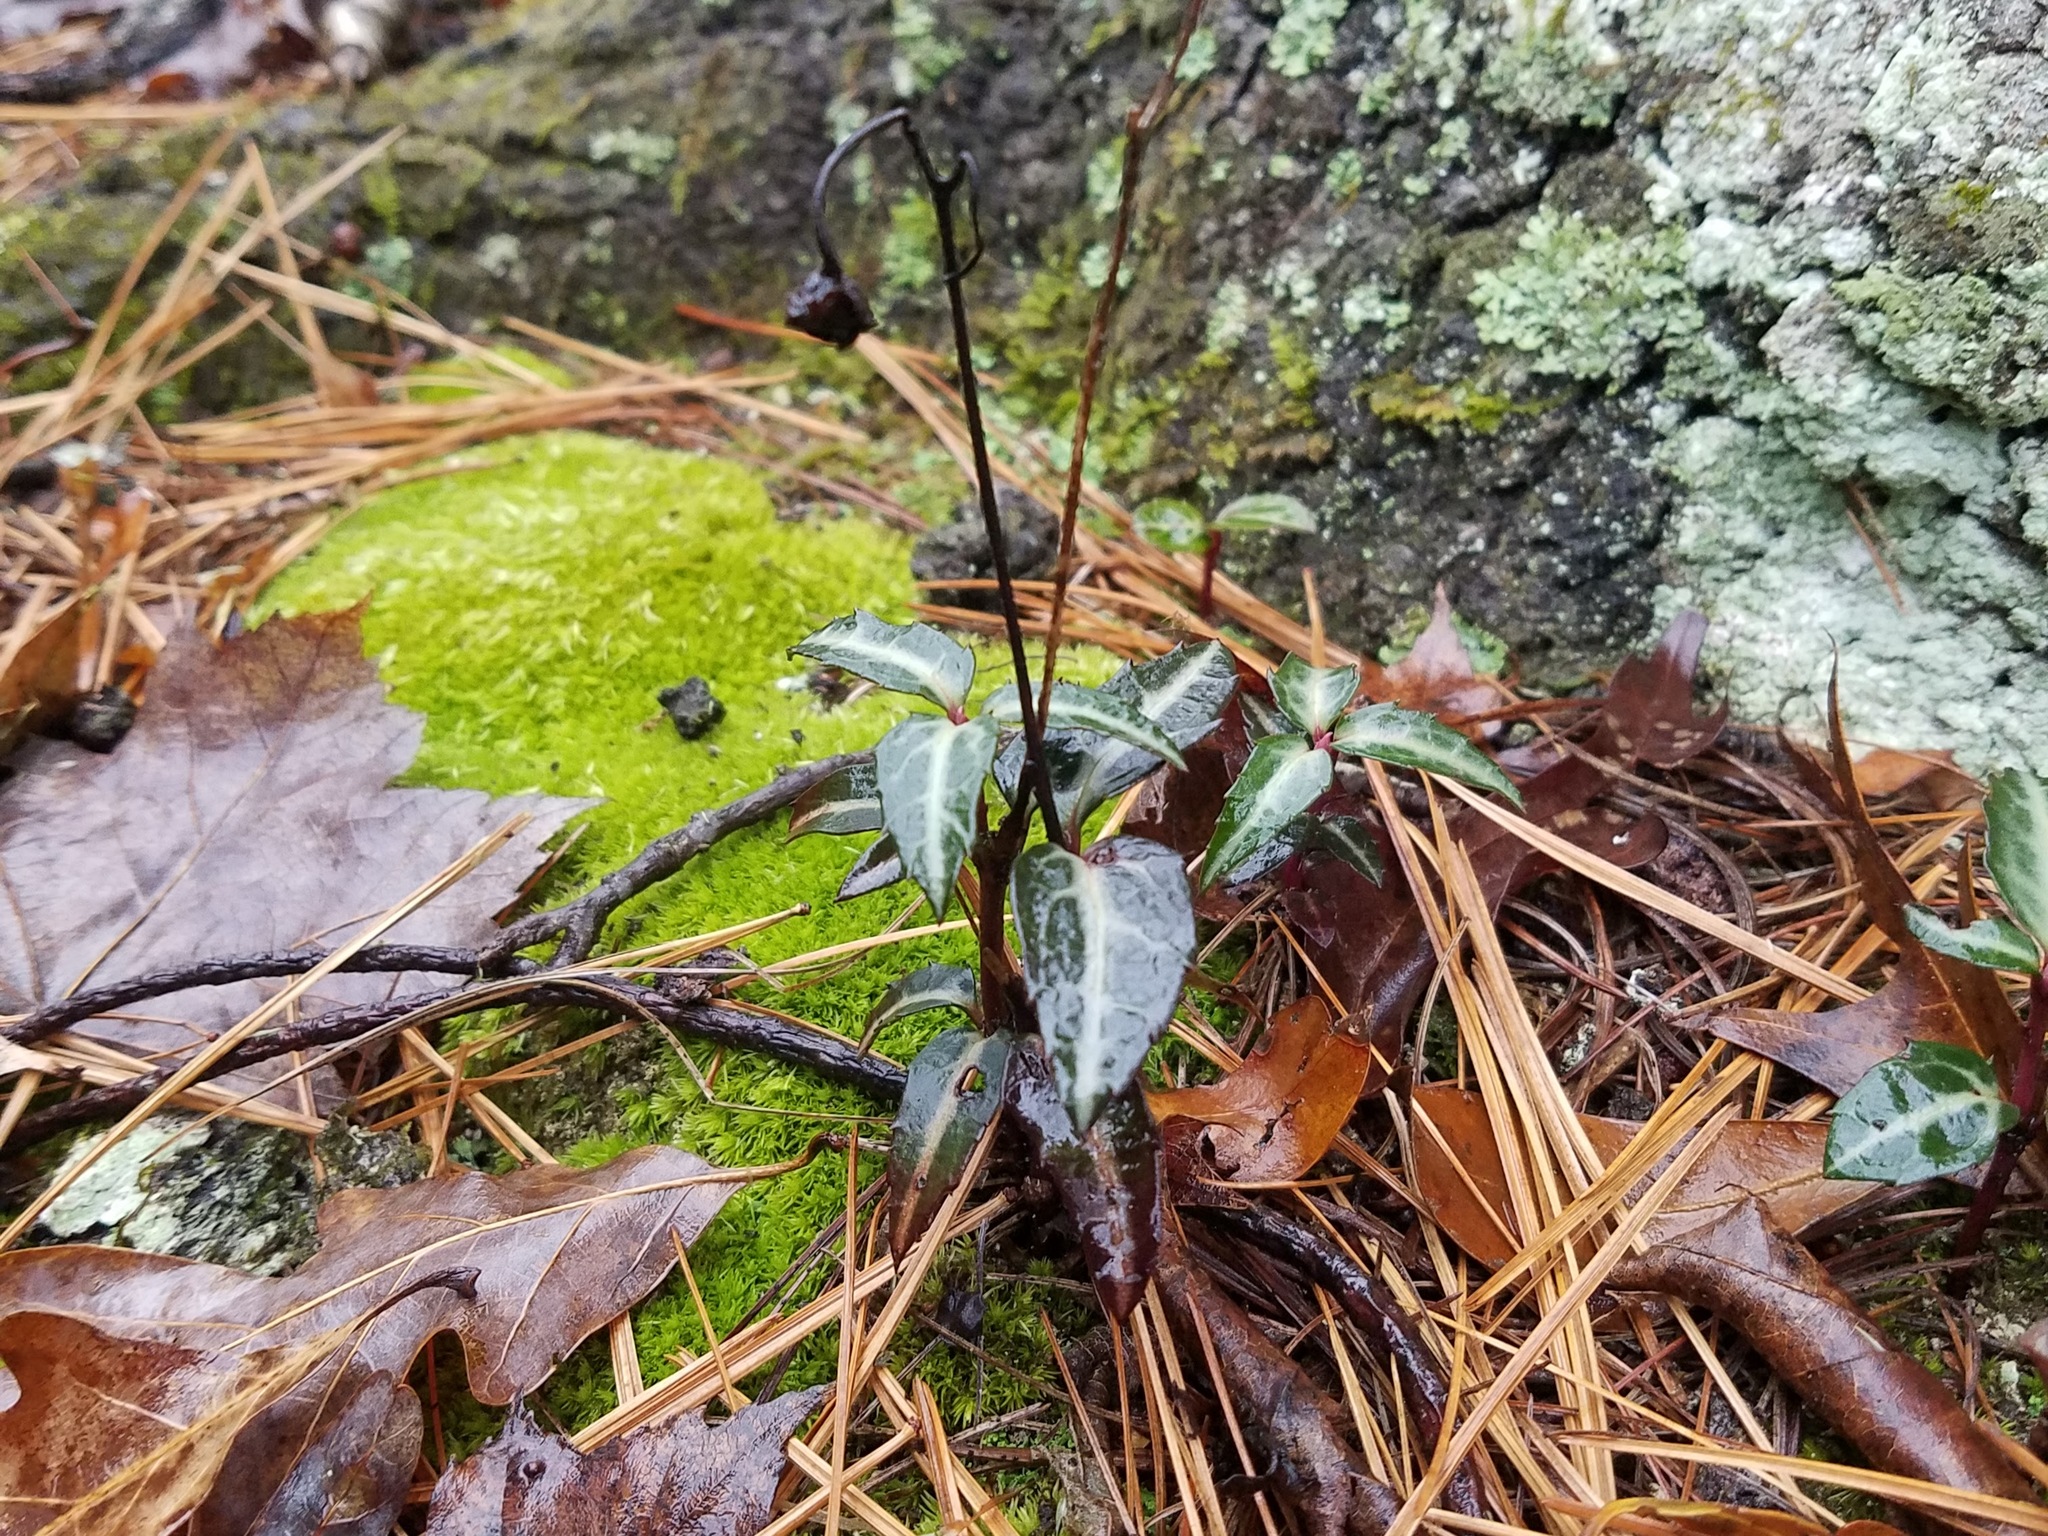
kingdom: Plantae
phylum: Tracheophyta
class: Magnoliopsida
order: Ericales
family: Ericaceae
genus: Chimaphila
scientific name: Chimaphila maculata
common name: Spotted pipsissewa
